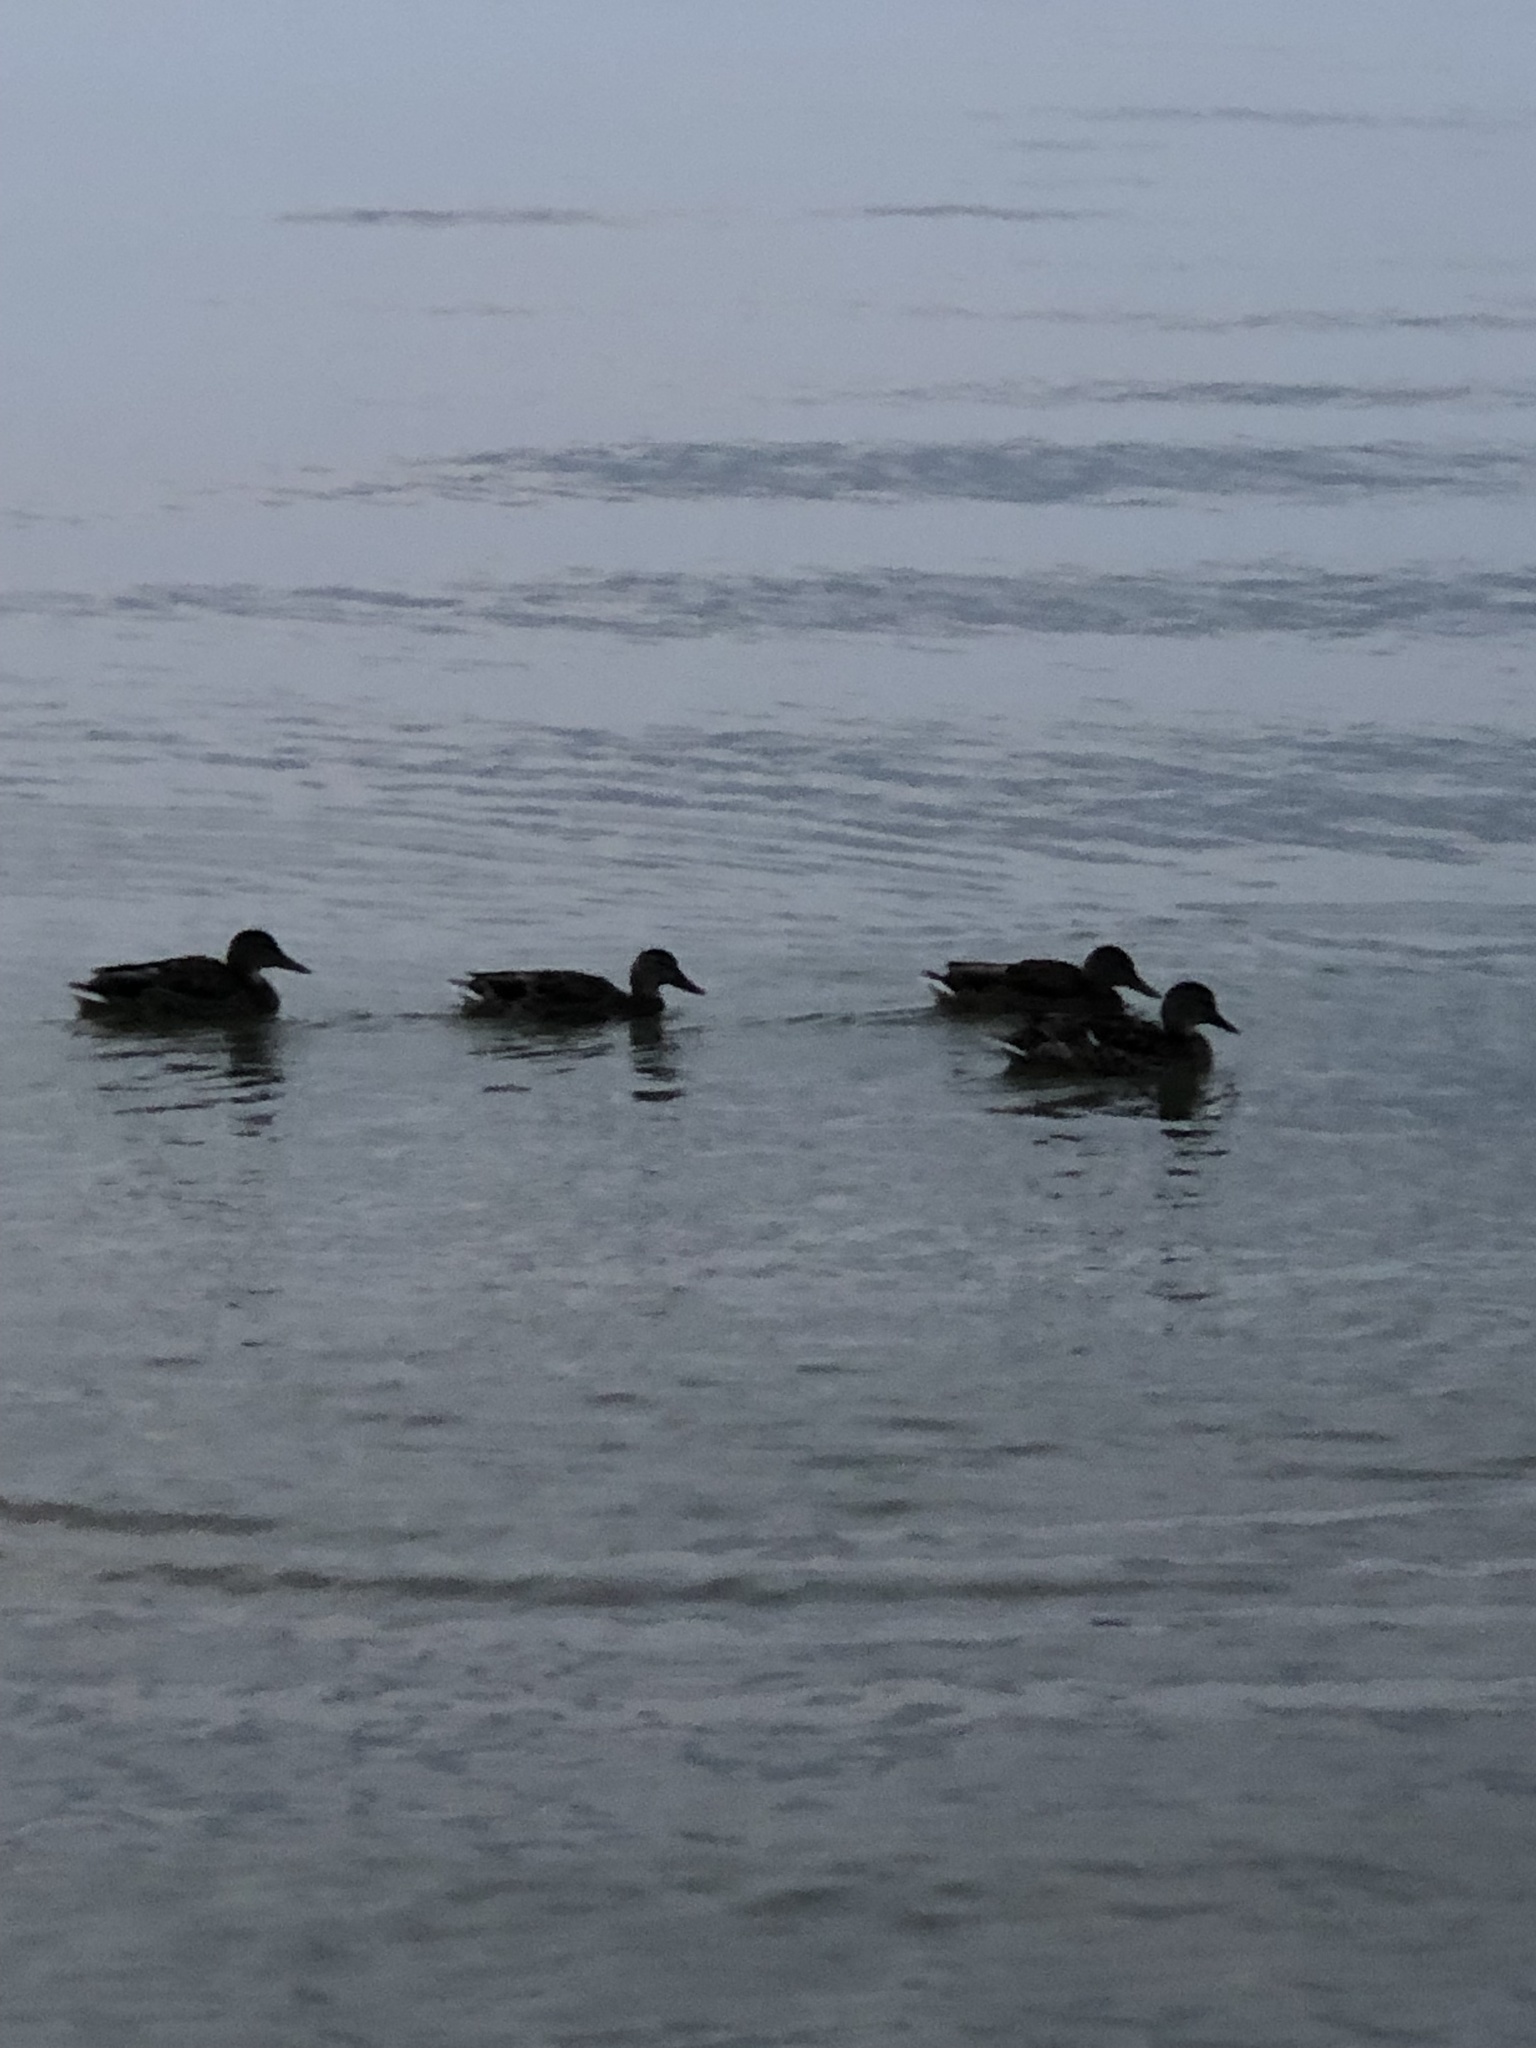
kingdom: Animalia
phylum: Chordata
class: Aves
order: Anseriformes
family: Anatidae
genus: Anas
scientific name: Anas platyrhynchos
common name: Mallard
